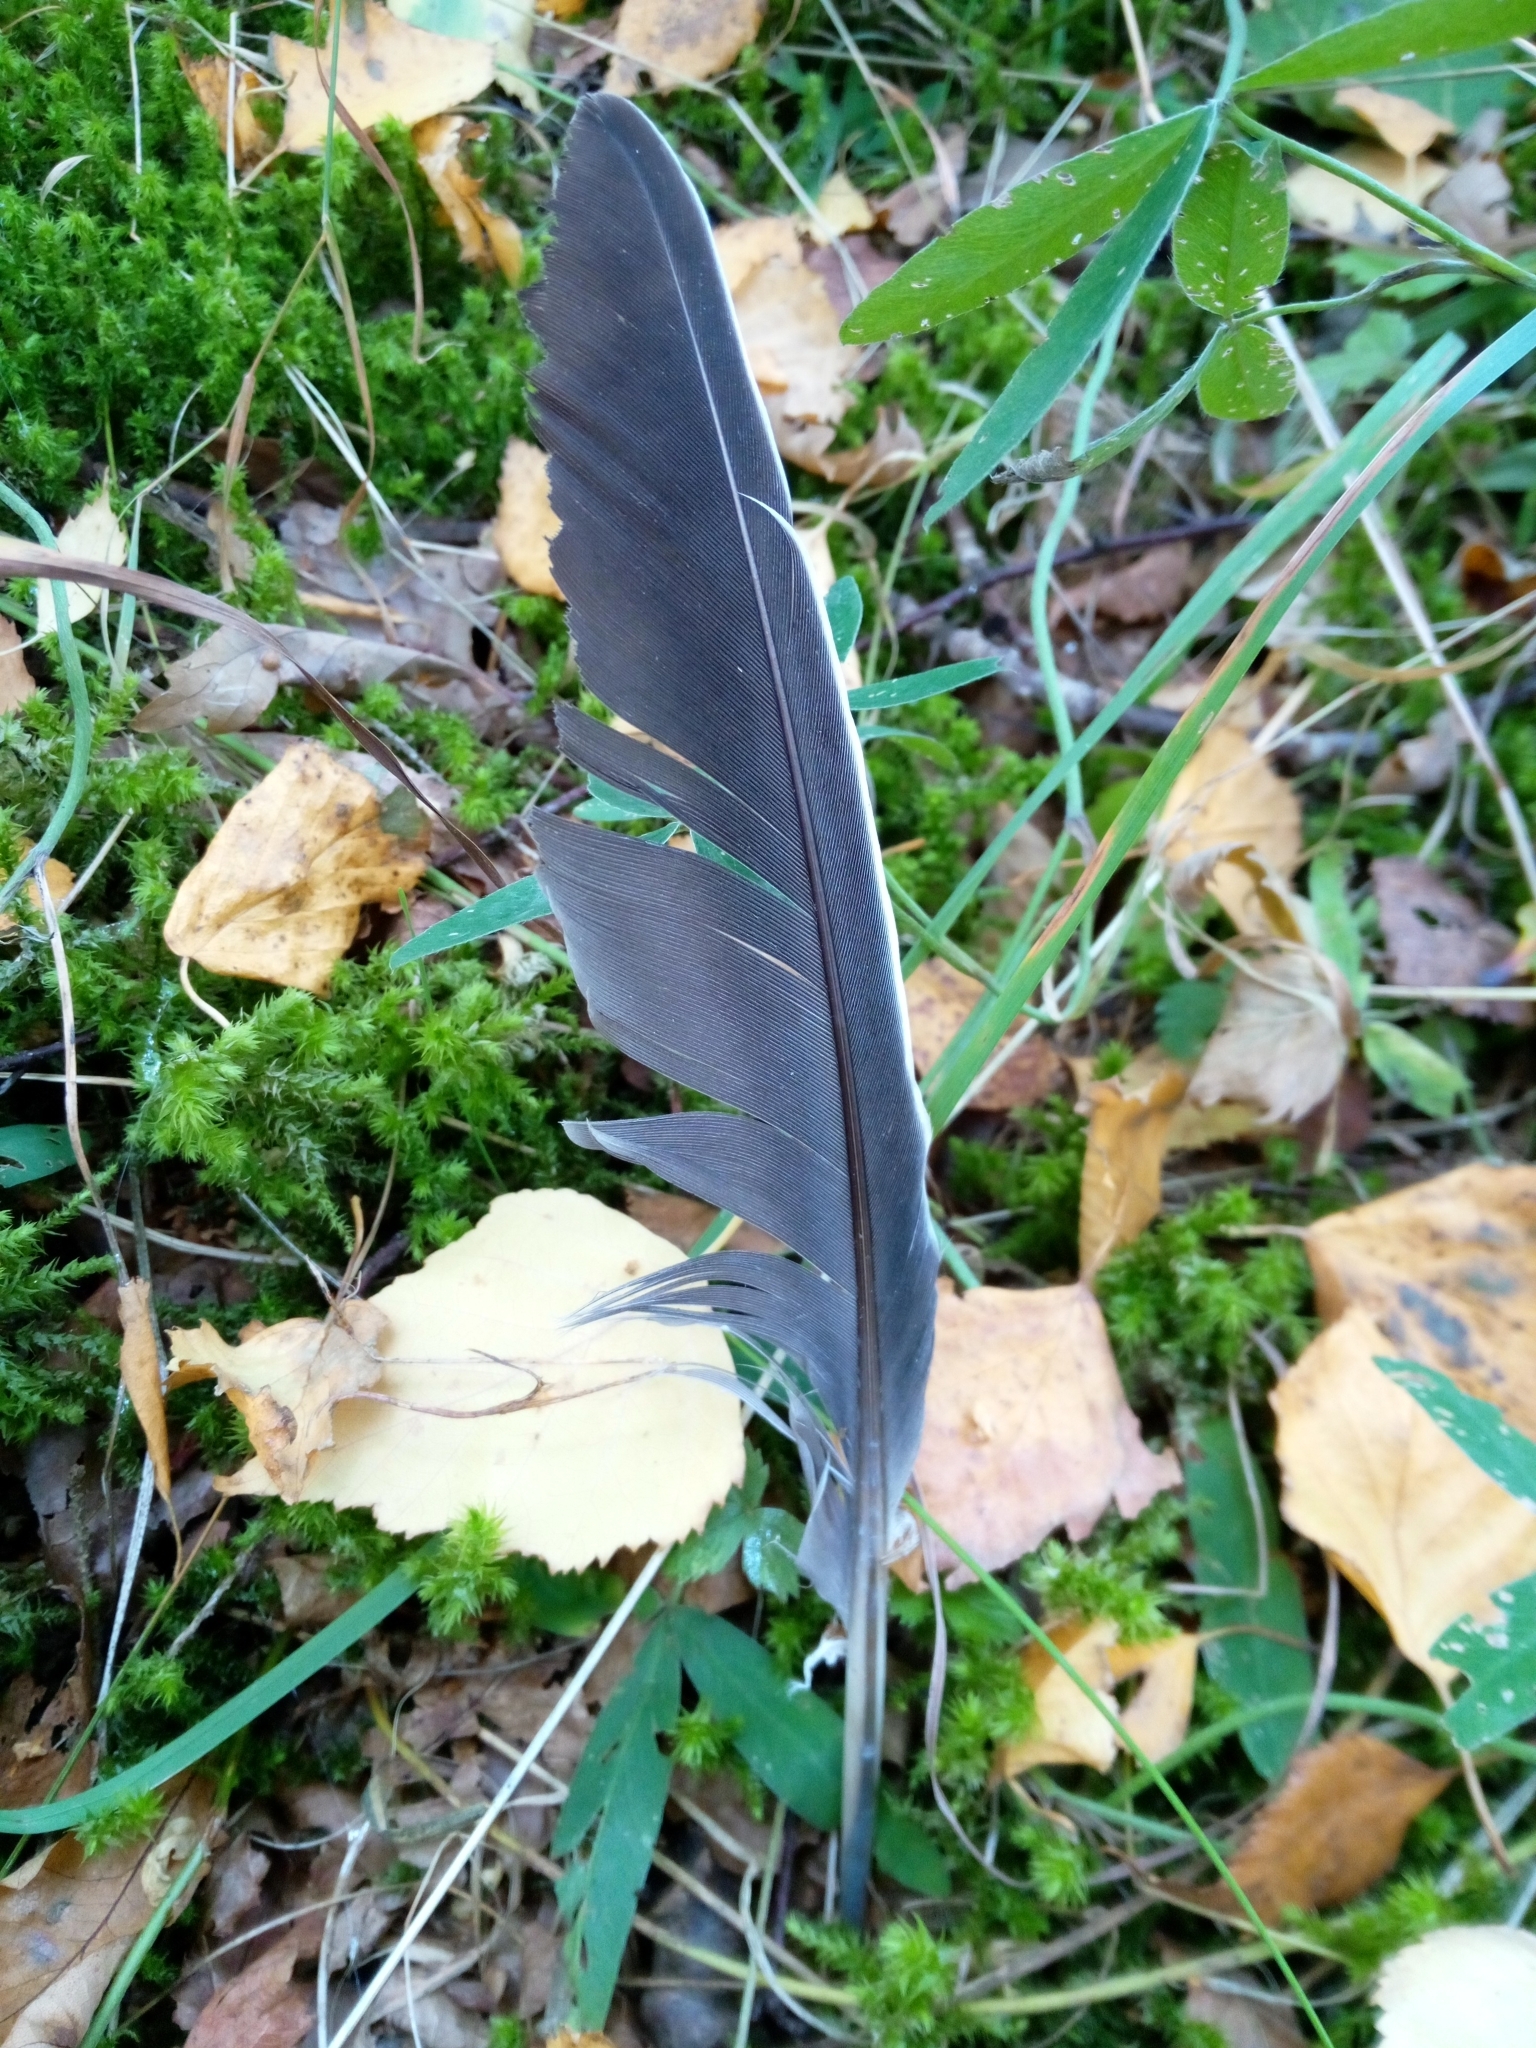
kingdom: Animalia
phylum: Chordata
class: Aves
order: Columbiformes
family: Columbidae
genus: Columba
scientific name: Columba palumbus
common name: Common wood pigeon
